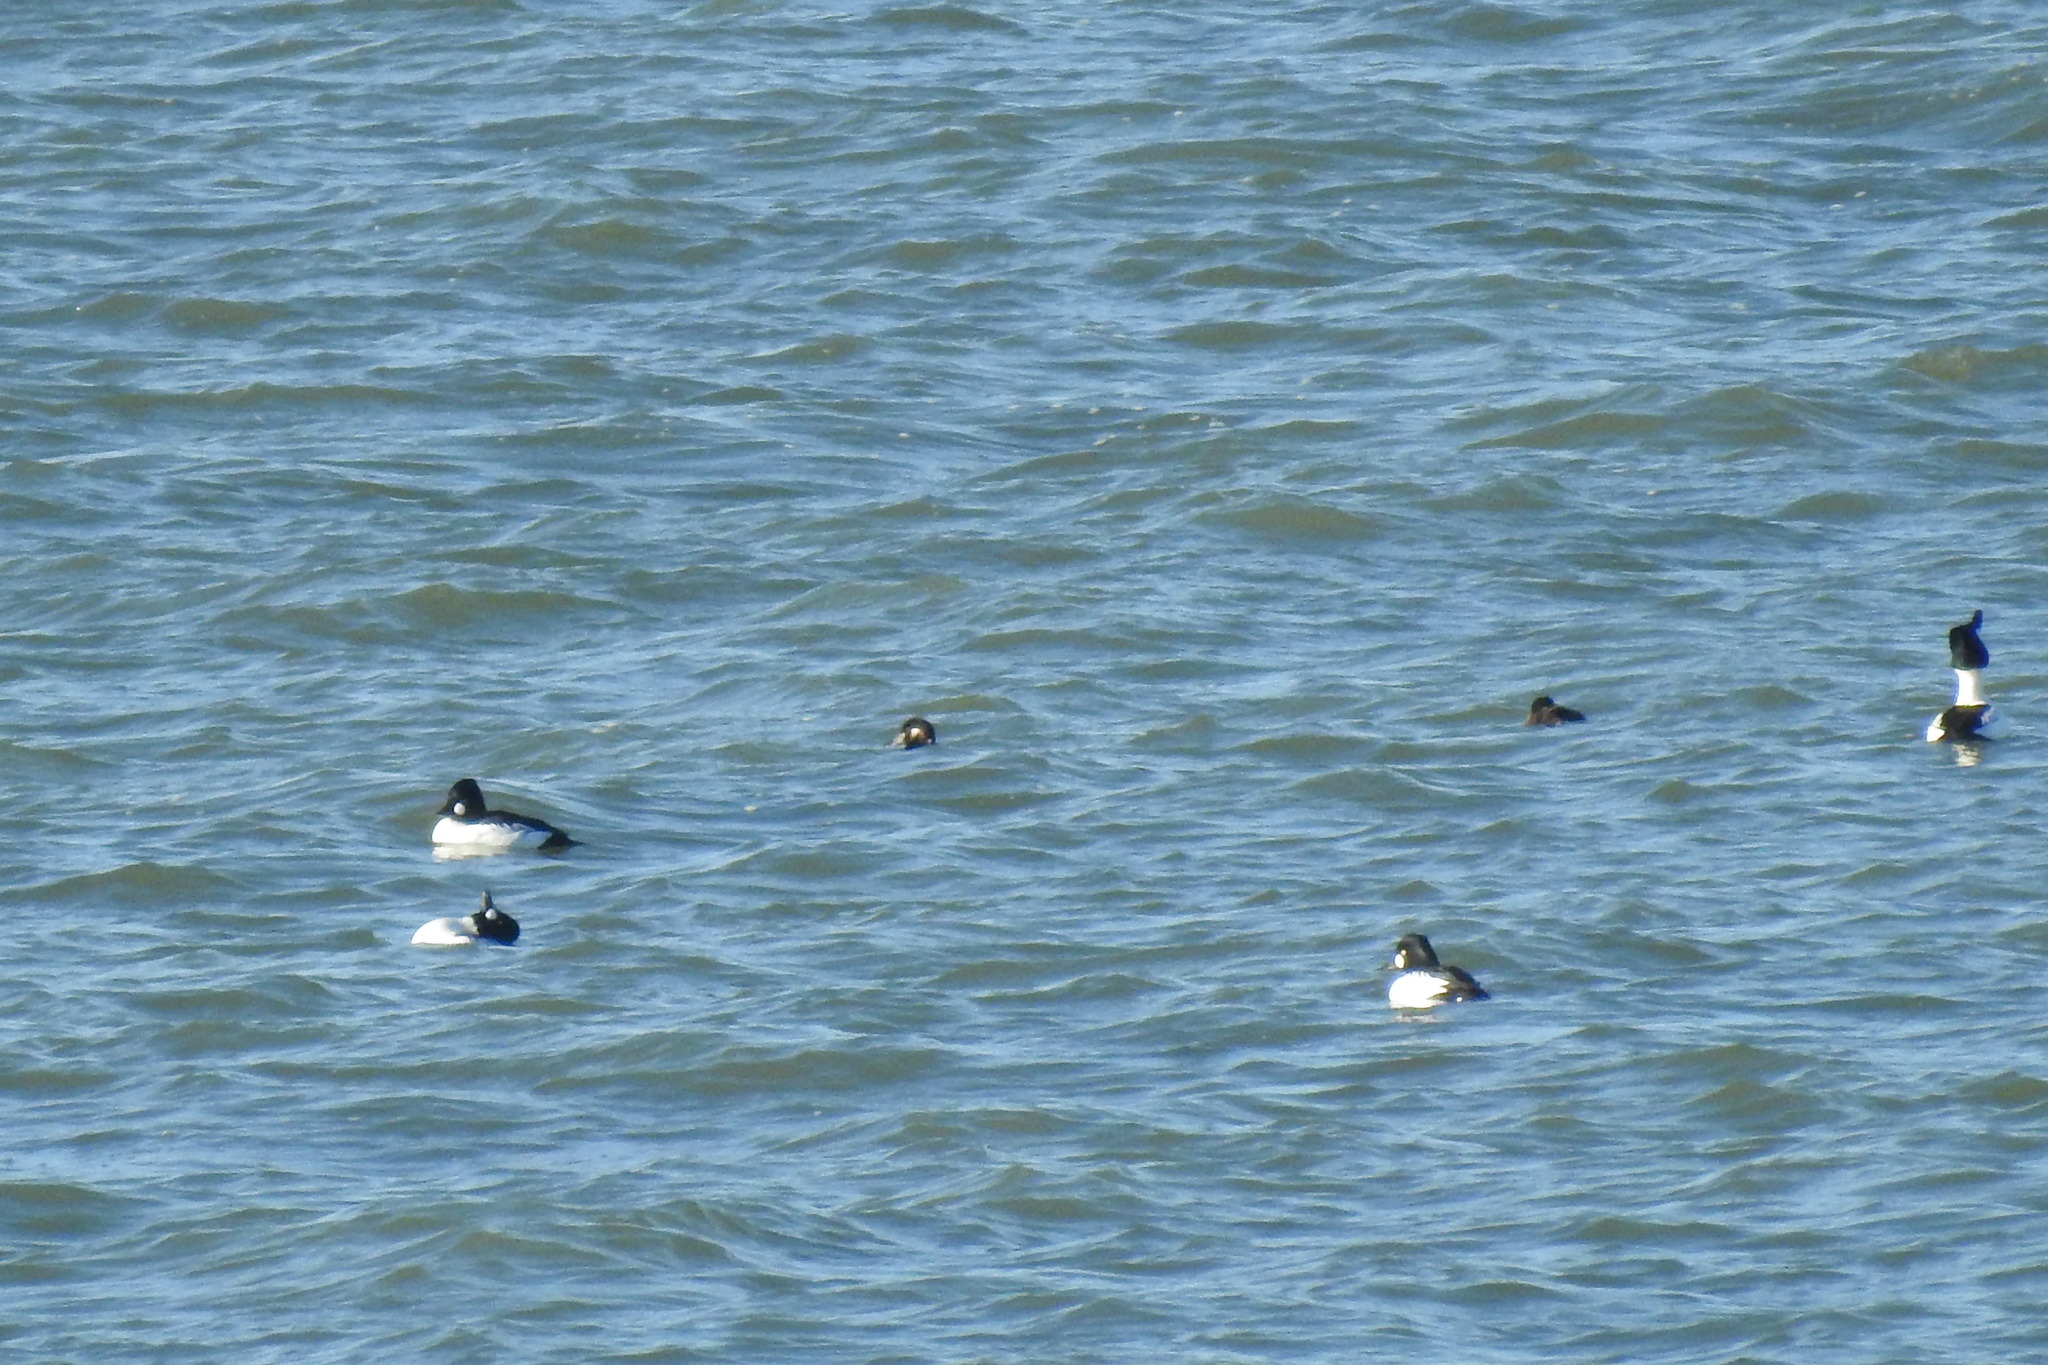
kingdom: Animalia
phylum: Chordata
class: Aves
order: Anseriformes
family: Anatidae
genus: Bucephala
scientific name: Bucephala clangula
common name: Common goldeneye
